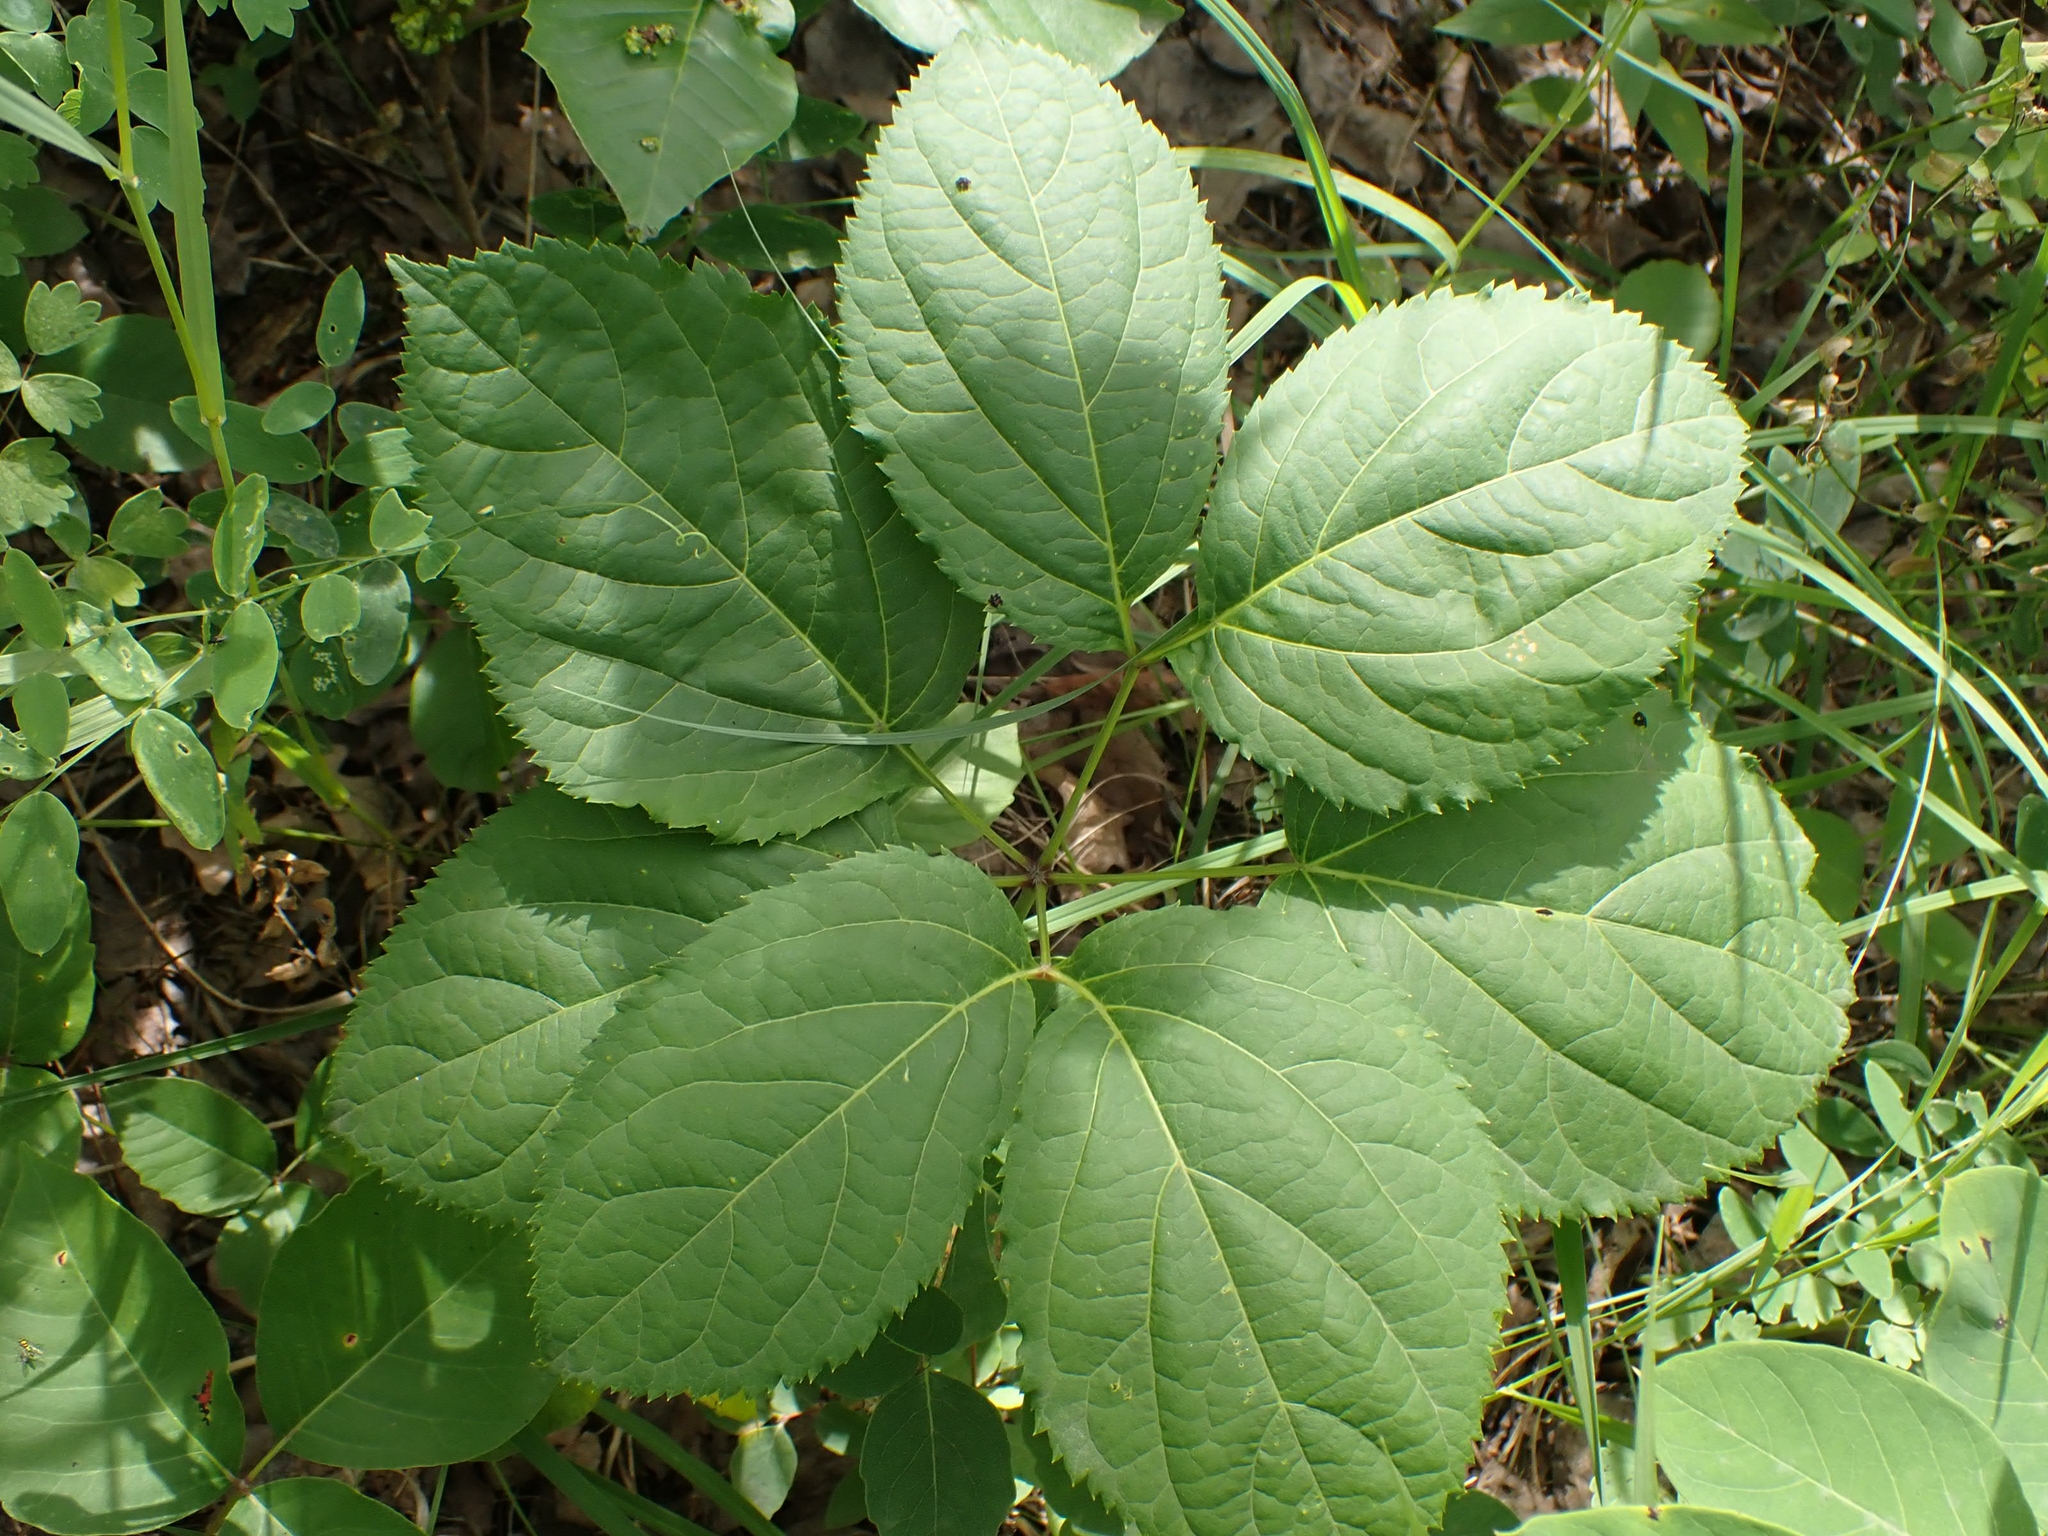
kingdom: Plantae
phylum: Tracheophyta
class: Magnoliopsida
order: Apiales
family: Araliaceae
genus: Aralia
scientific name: Aralia nudicaulis
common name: Wild sarsaparilla
